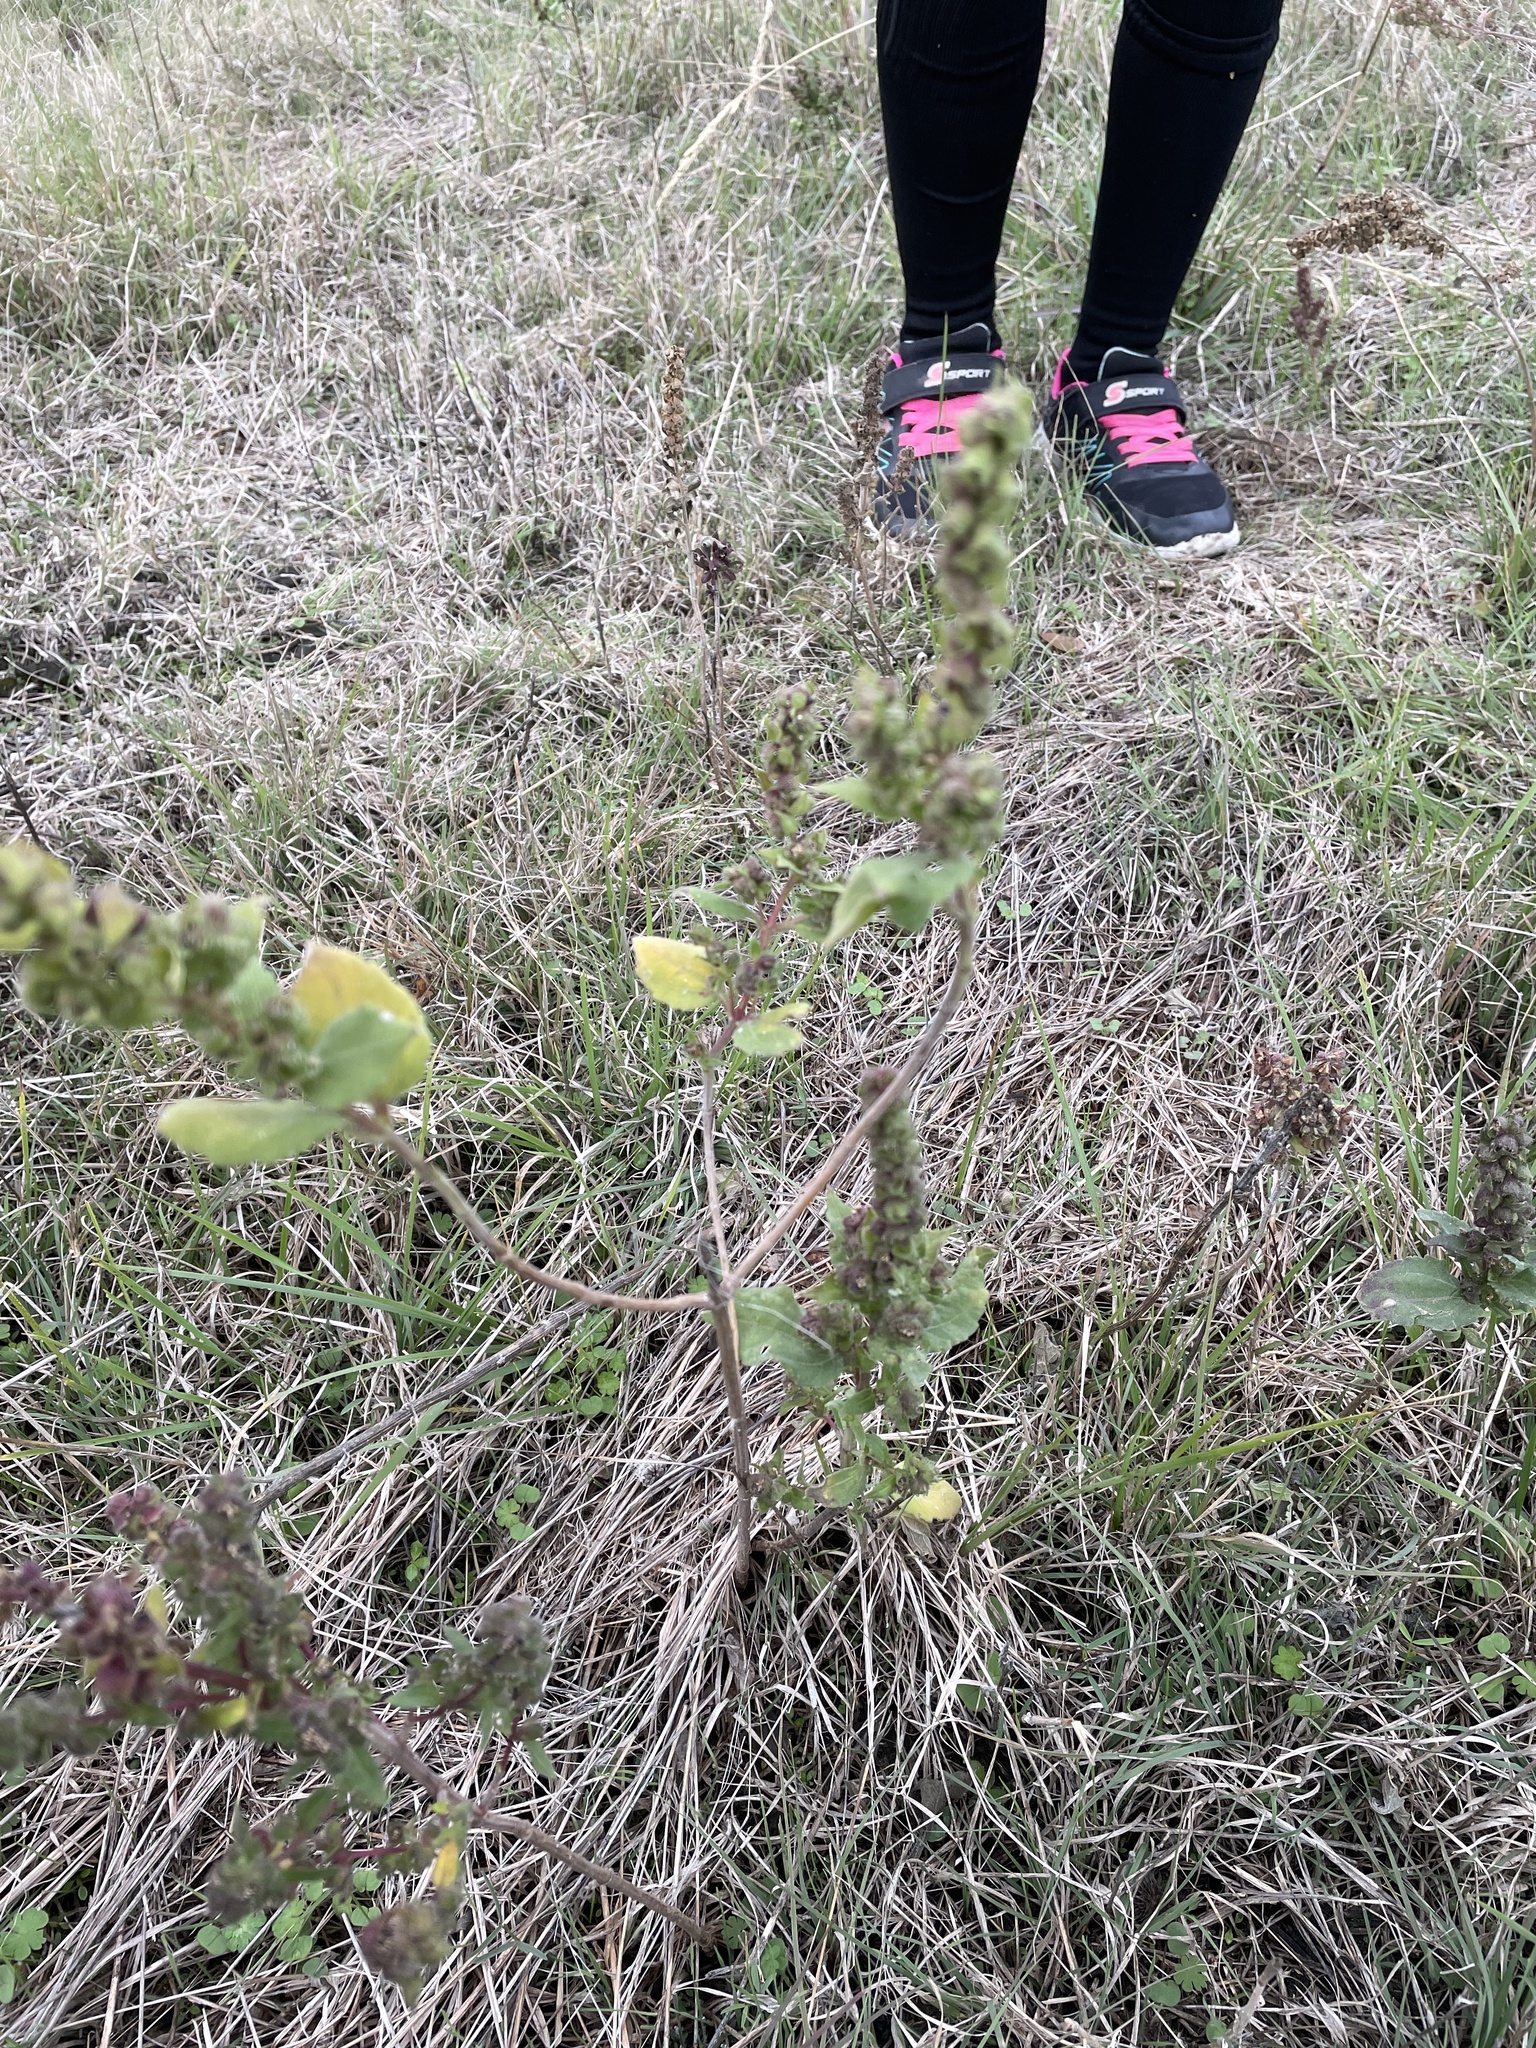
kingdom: Plantae
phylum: Tracheophyta
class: Magnoliopsida
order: Asterales
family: Asteraceae
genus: Iva
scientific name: Iva annua
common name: Marsh-elder
